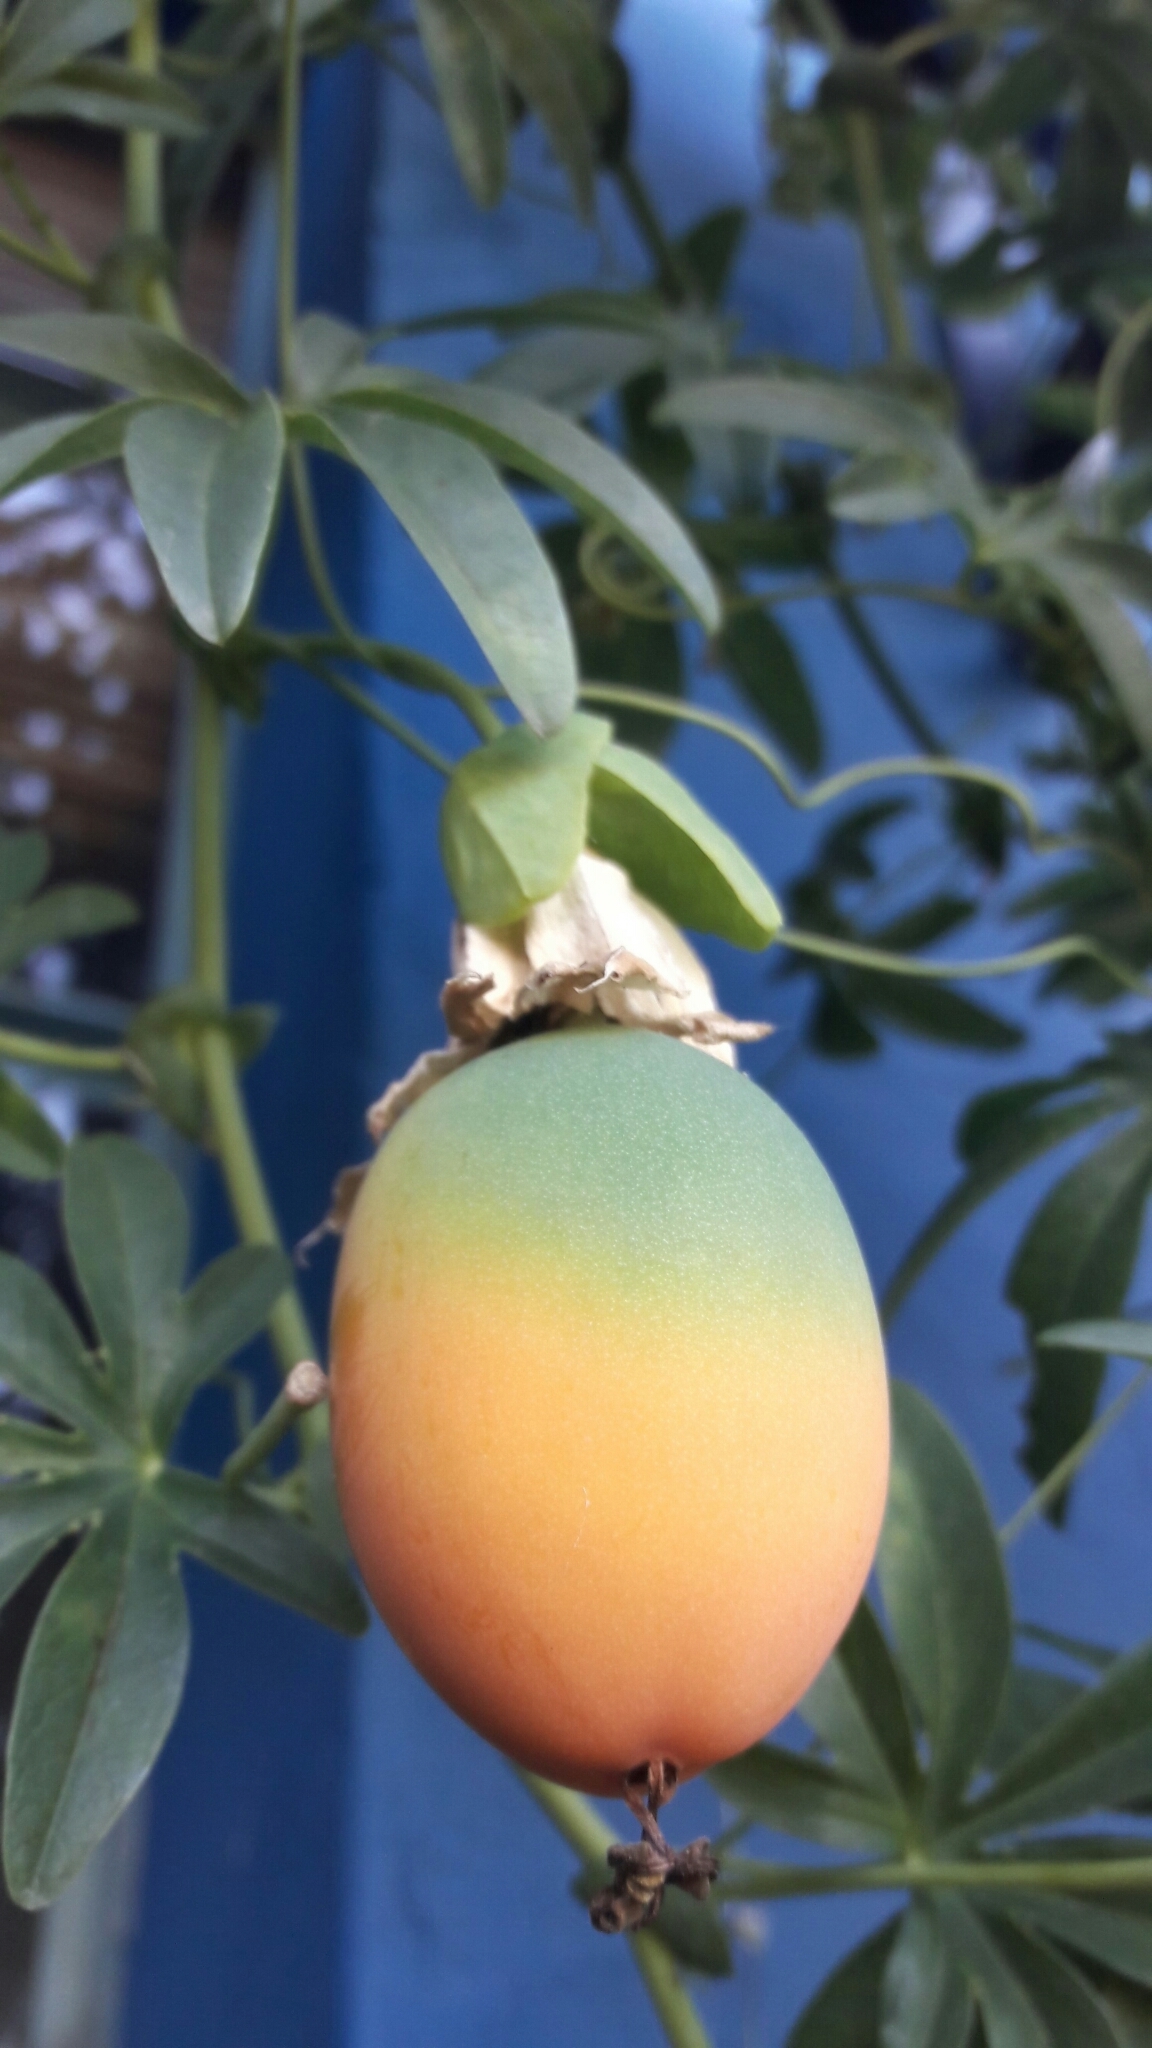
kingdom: Plantae
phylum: Tracheophyta
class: Magnoliopsida
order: Malpighiales
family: Passifloraceae
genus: Passiflora
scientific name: Passiflora caerulea
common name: Blue passionflower
